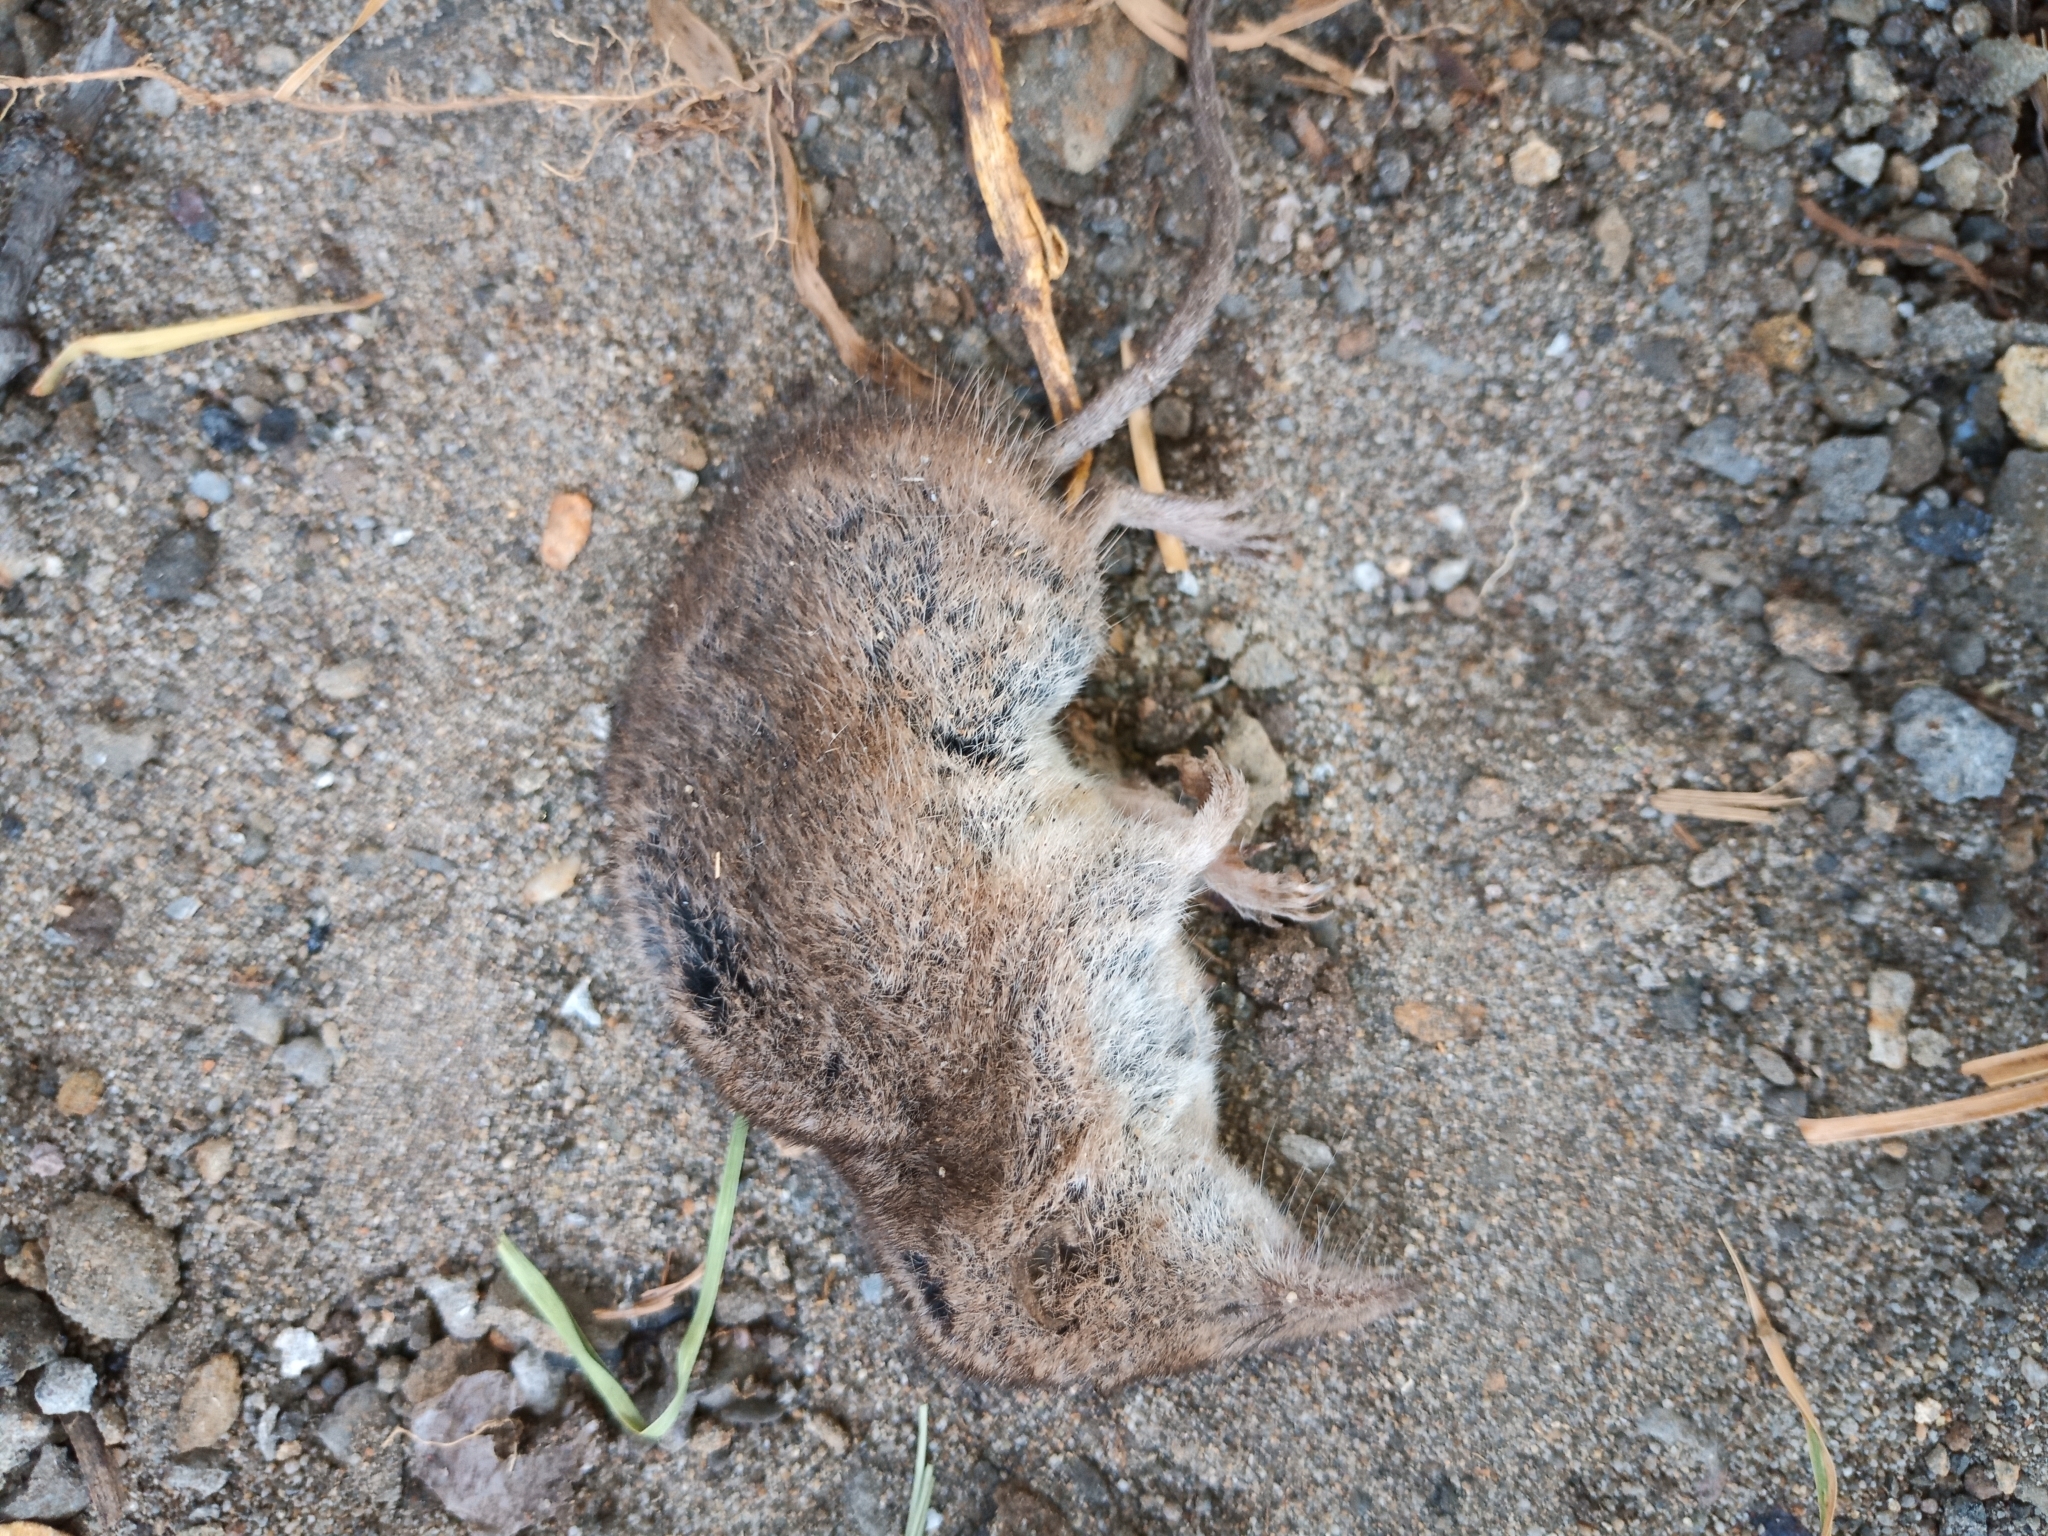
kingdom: Animalia
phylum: Chordata
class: Mammalia
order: Soricomorpha
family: Soricidae
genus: Myosorex
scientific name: Myosorex varius
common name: Forest shrew
